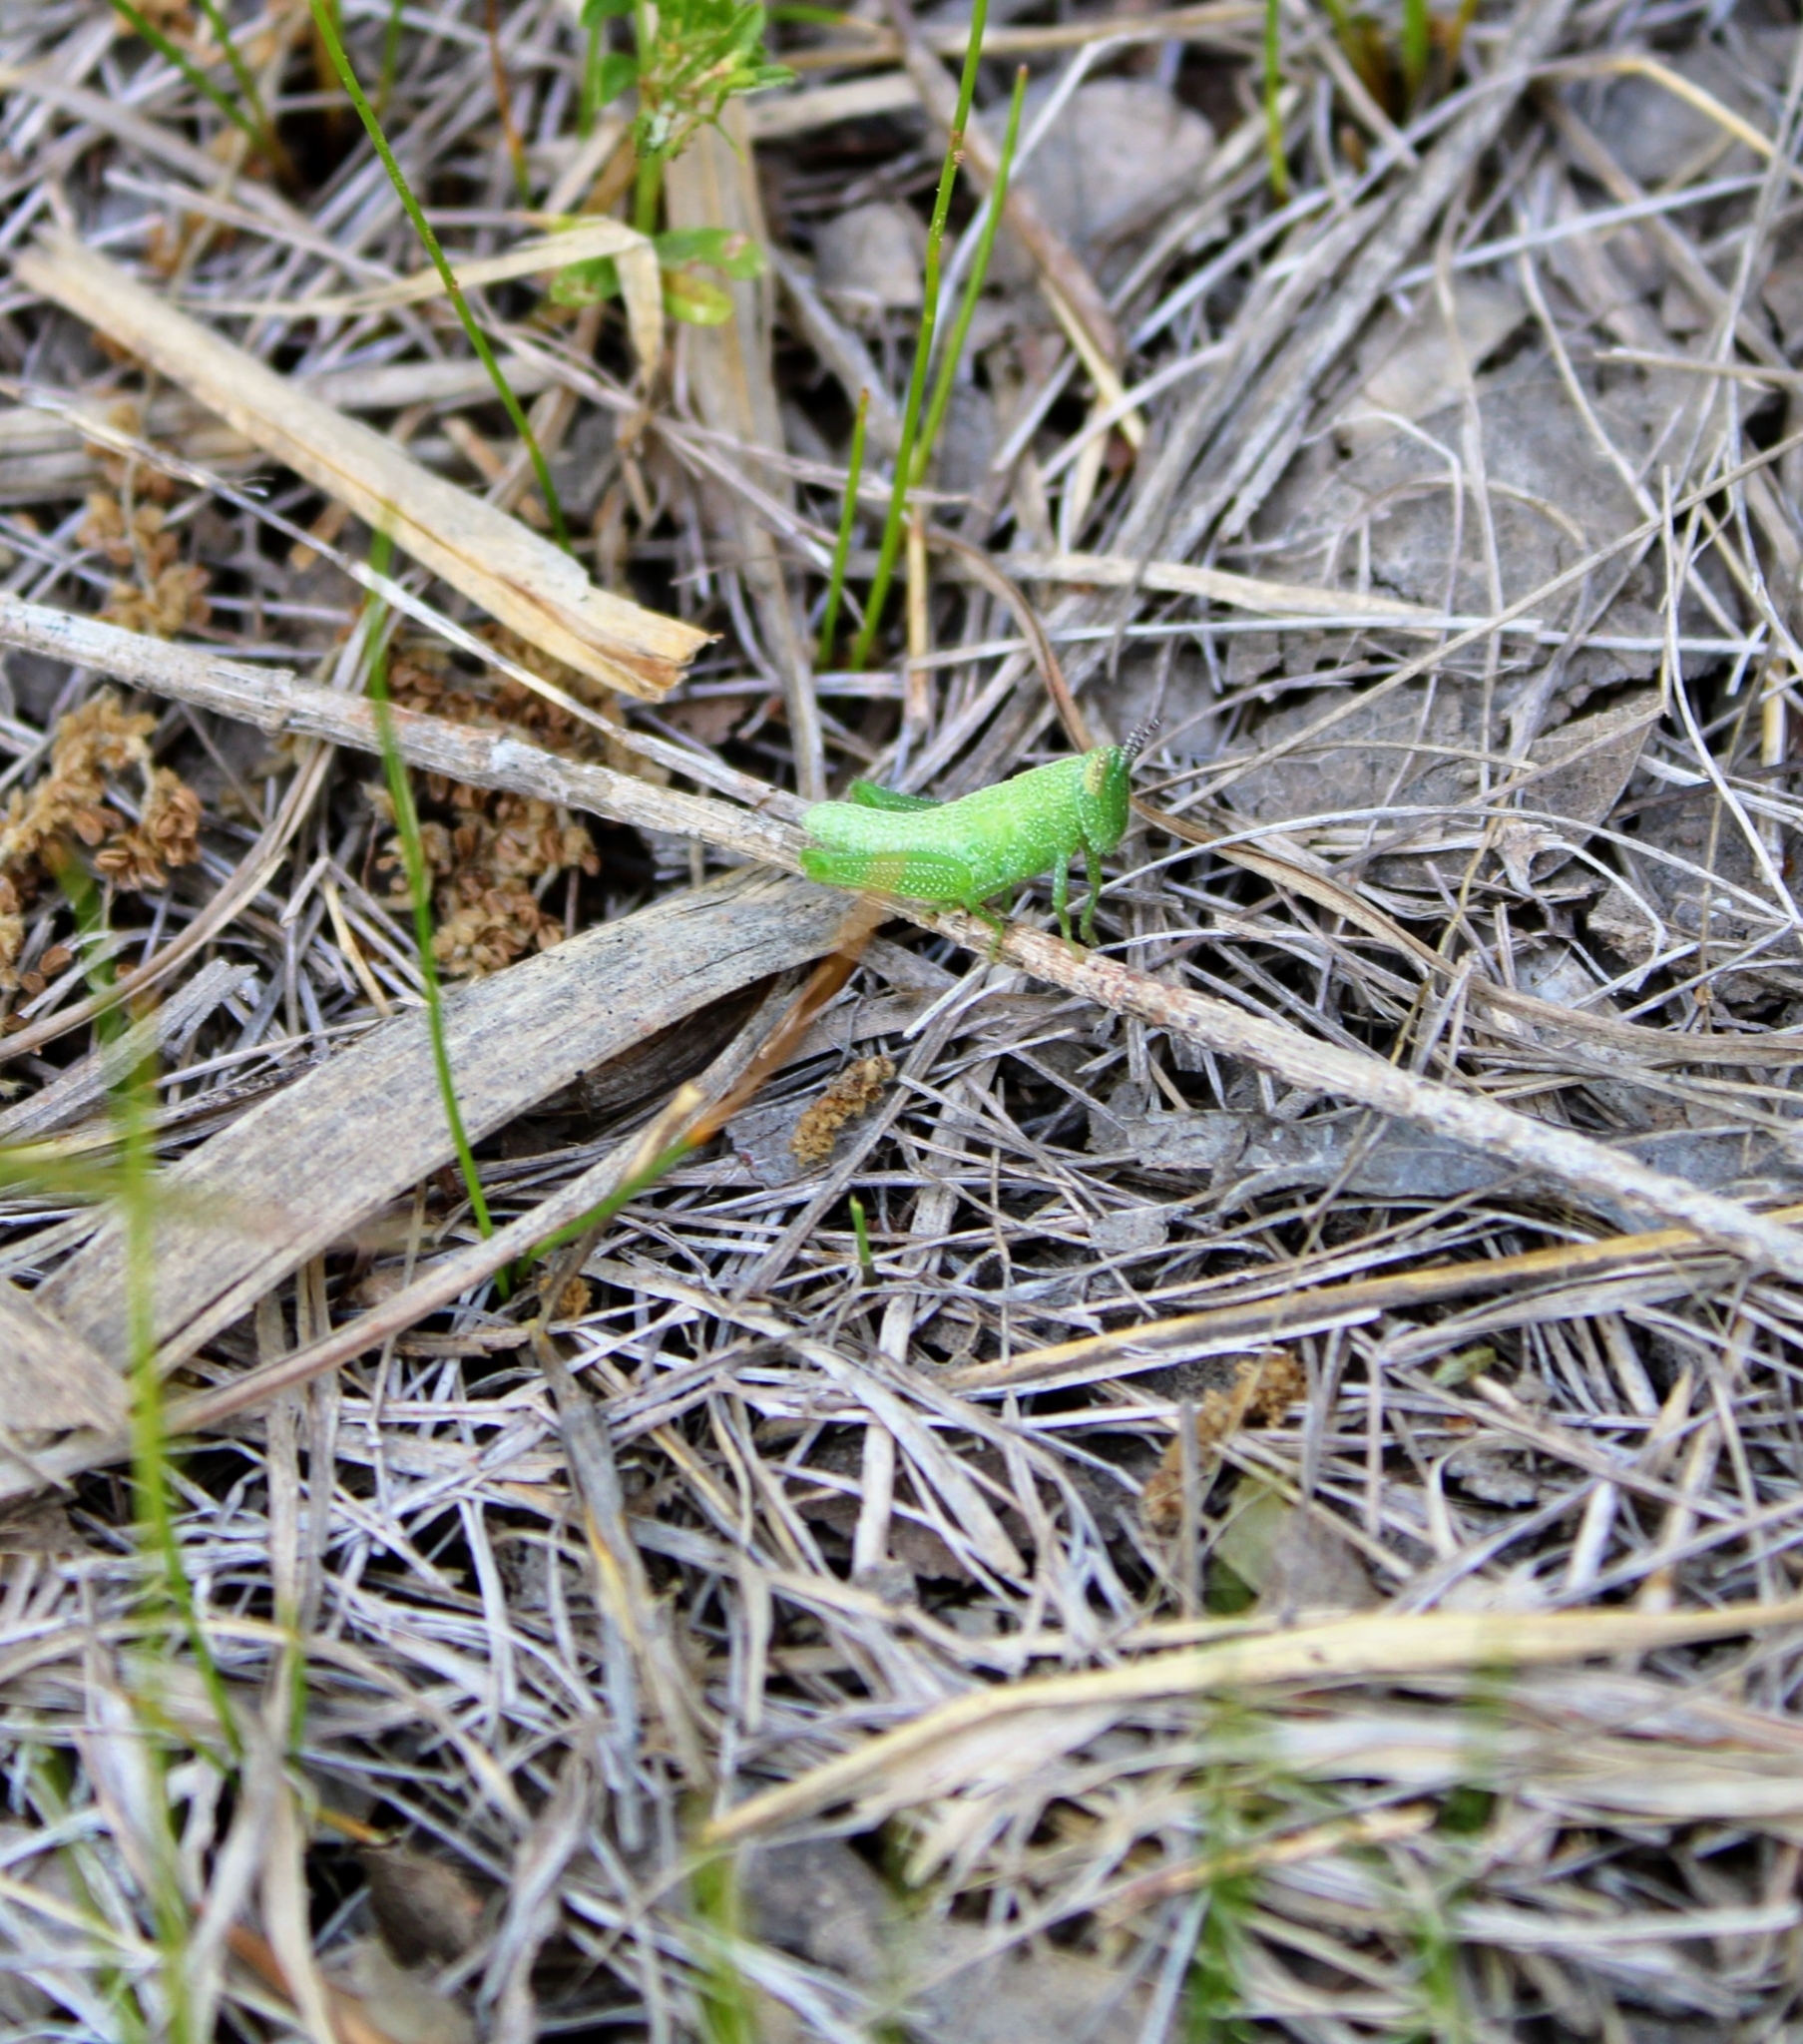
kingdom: Animalia
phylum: Arthropoda
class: Insecta
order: Orthoptera
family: Acrididae
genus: Hesperotettix
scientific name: Hesperotettix speciosus
